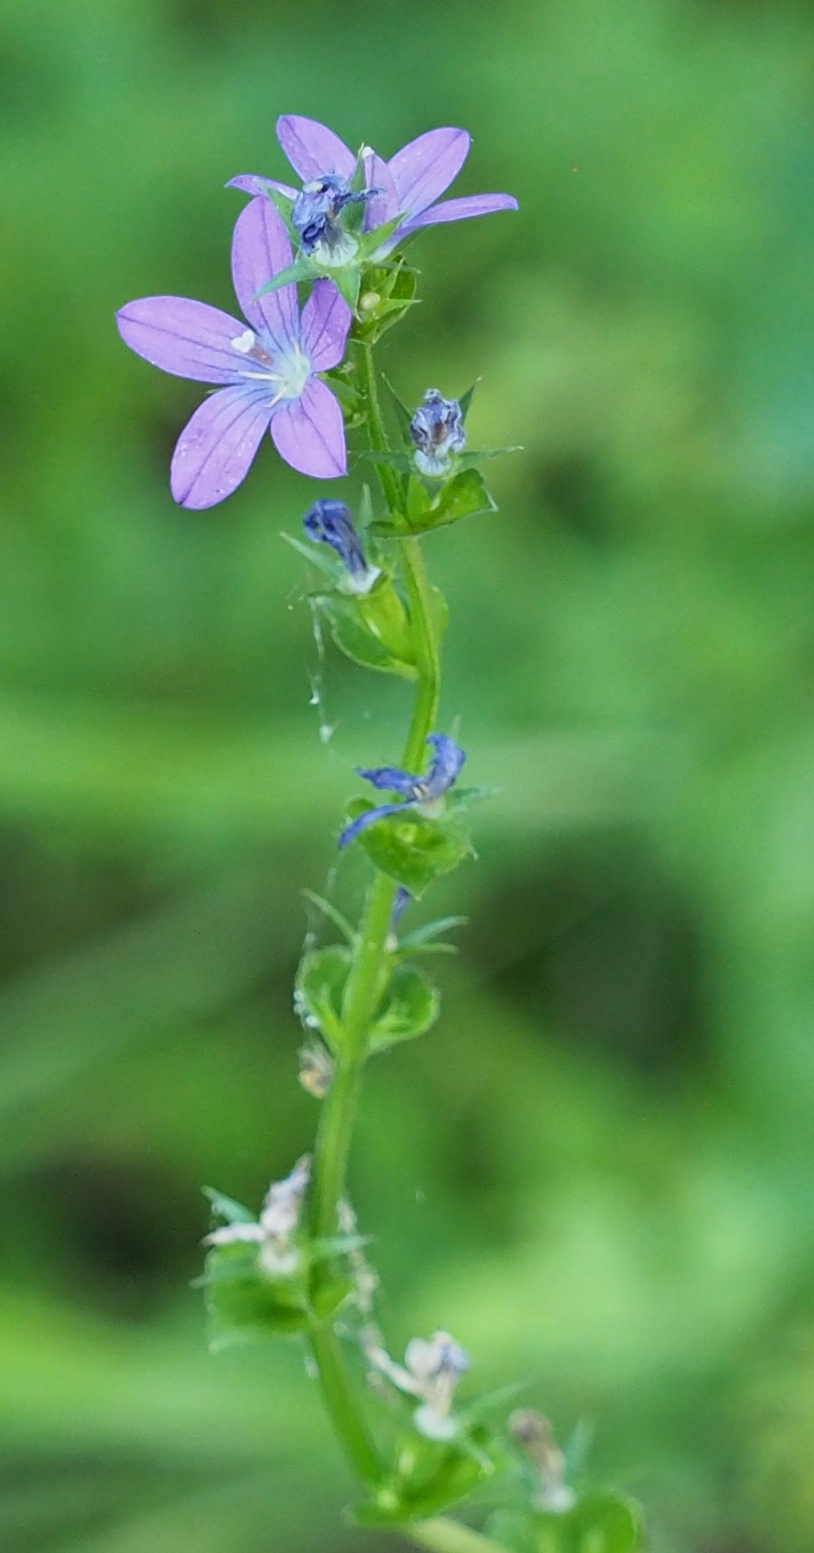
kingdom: Plantae
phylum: Tracheophyta
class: Magnoliopsida
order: Asterales
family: Campanulaceae
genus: Triodanis
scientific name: Triodanis perfoliata
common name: Clasping venus' looking-glass
